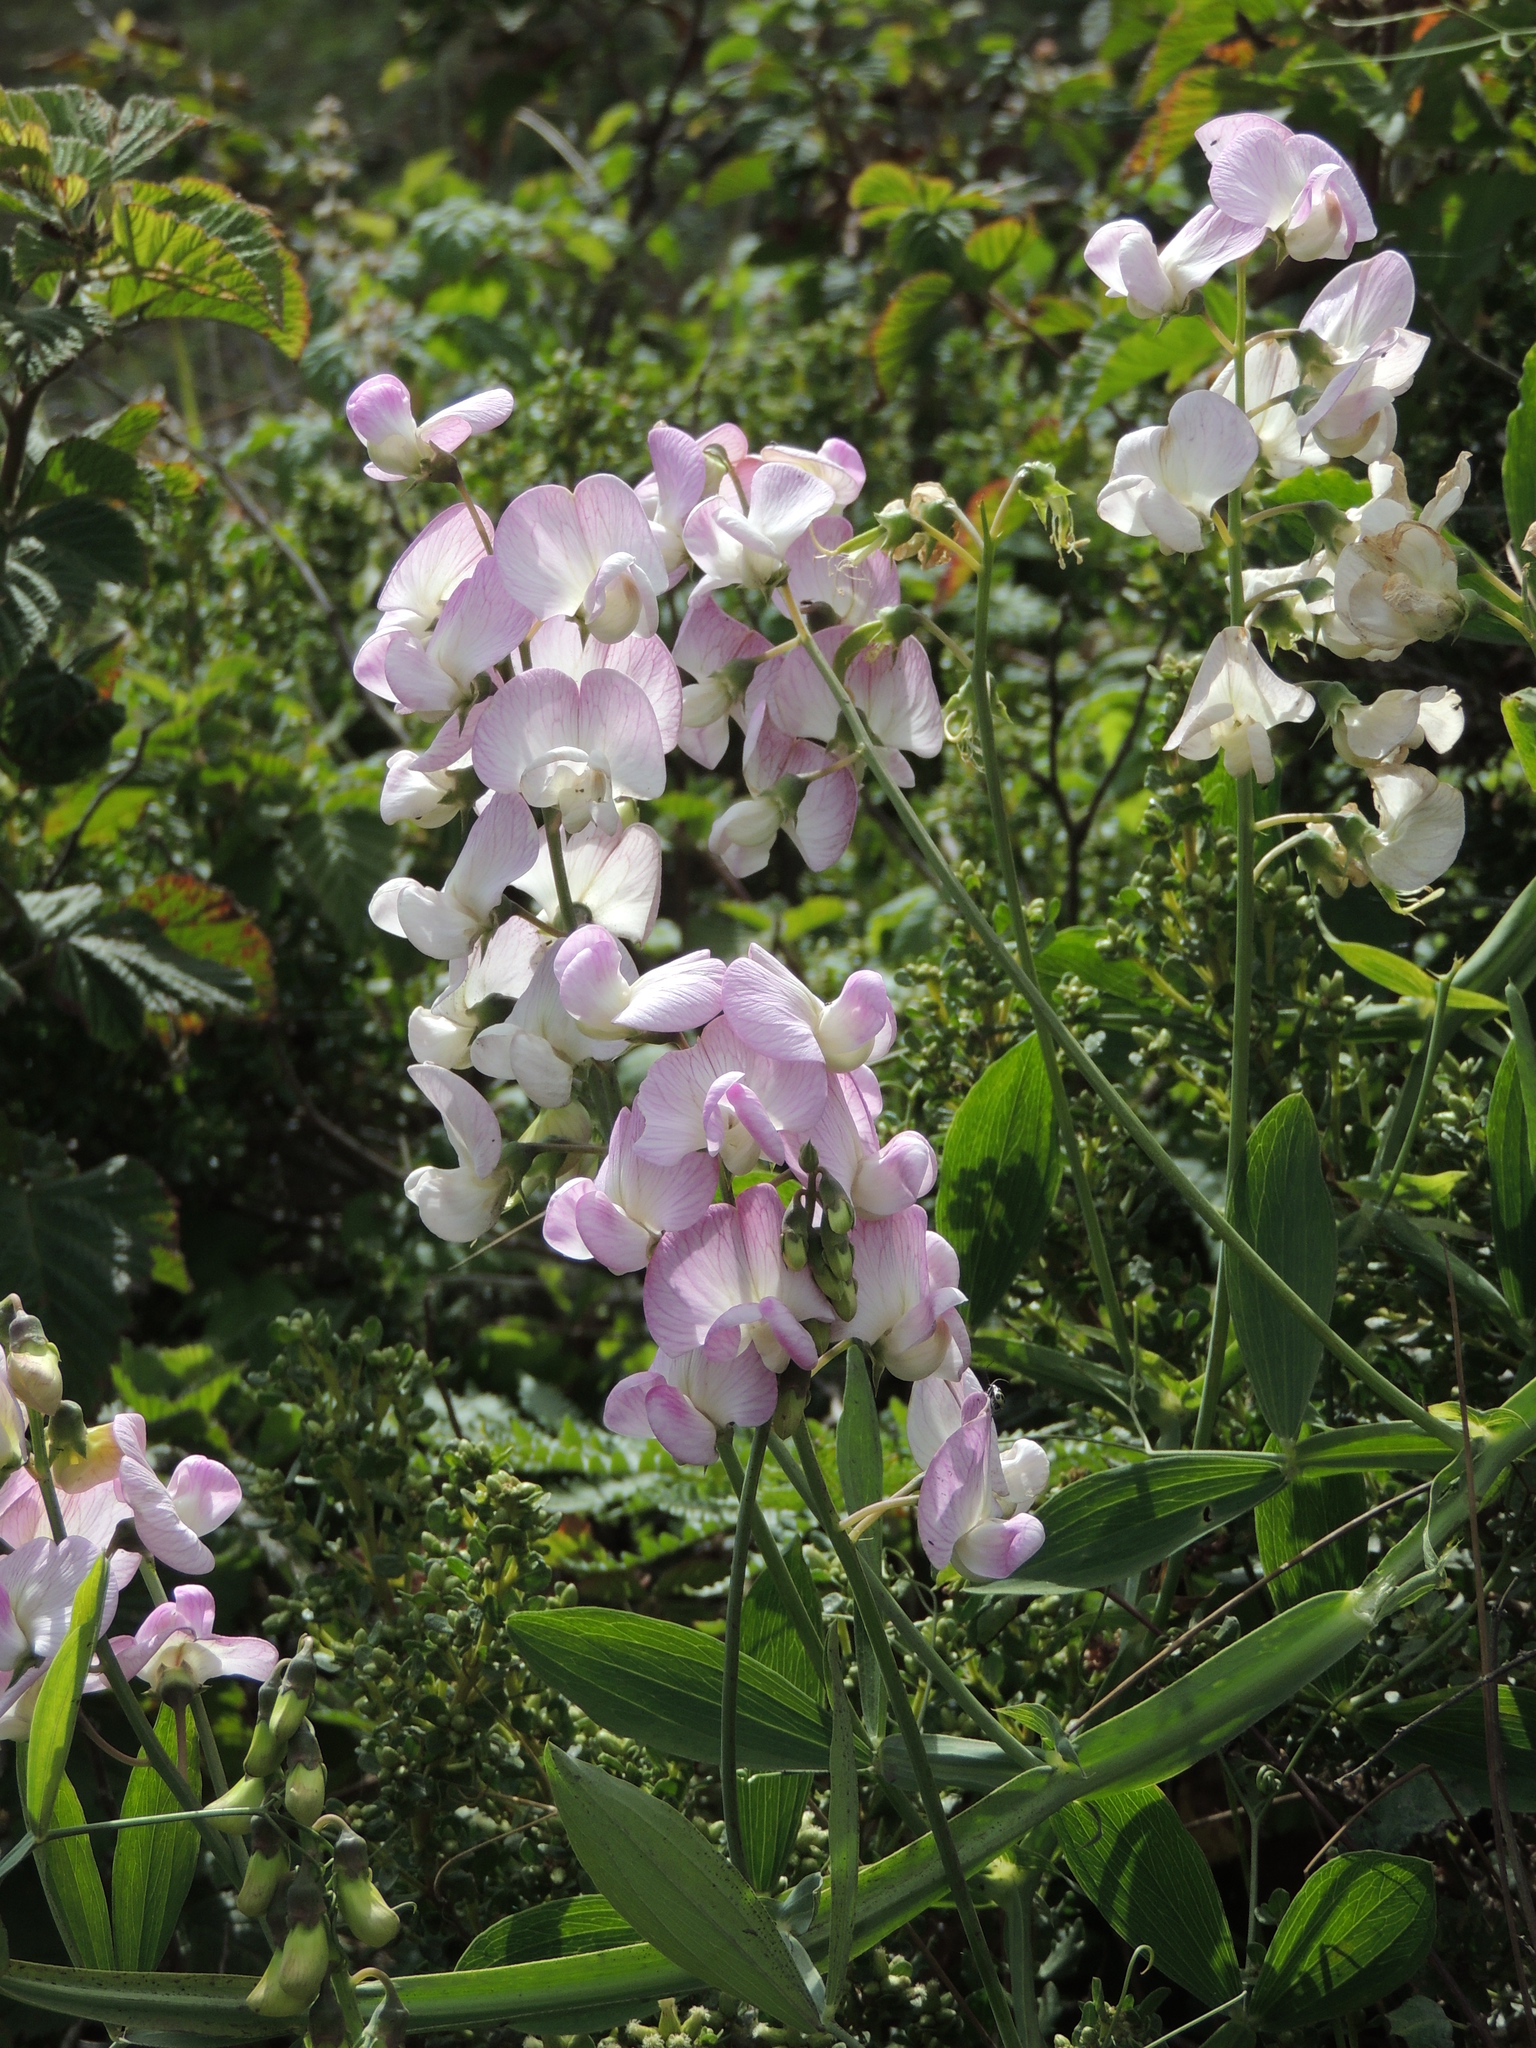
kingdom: Plantae
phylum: Tracheophyta
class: Magnoliopsida
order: Fabales
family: Fabaceae
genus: Lathyrus
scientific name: Lathyrus latifolius
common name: Perennial pea
